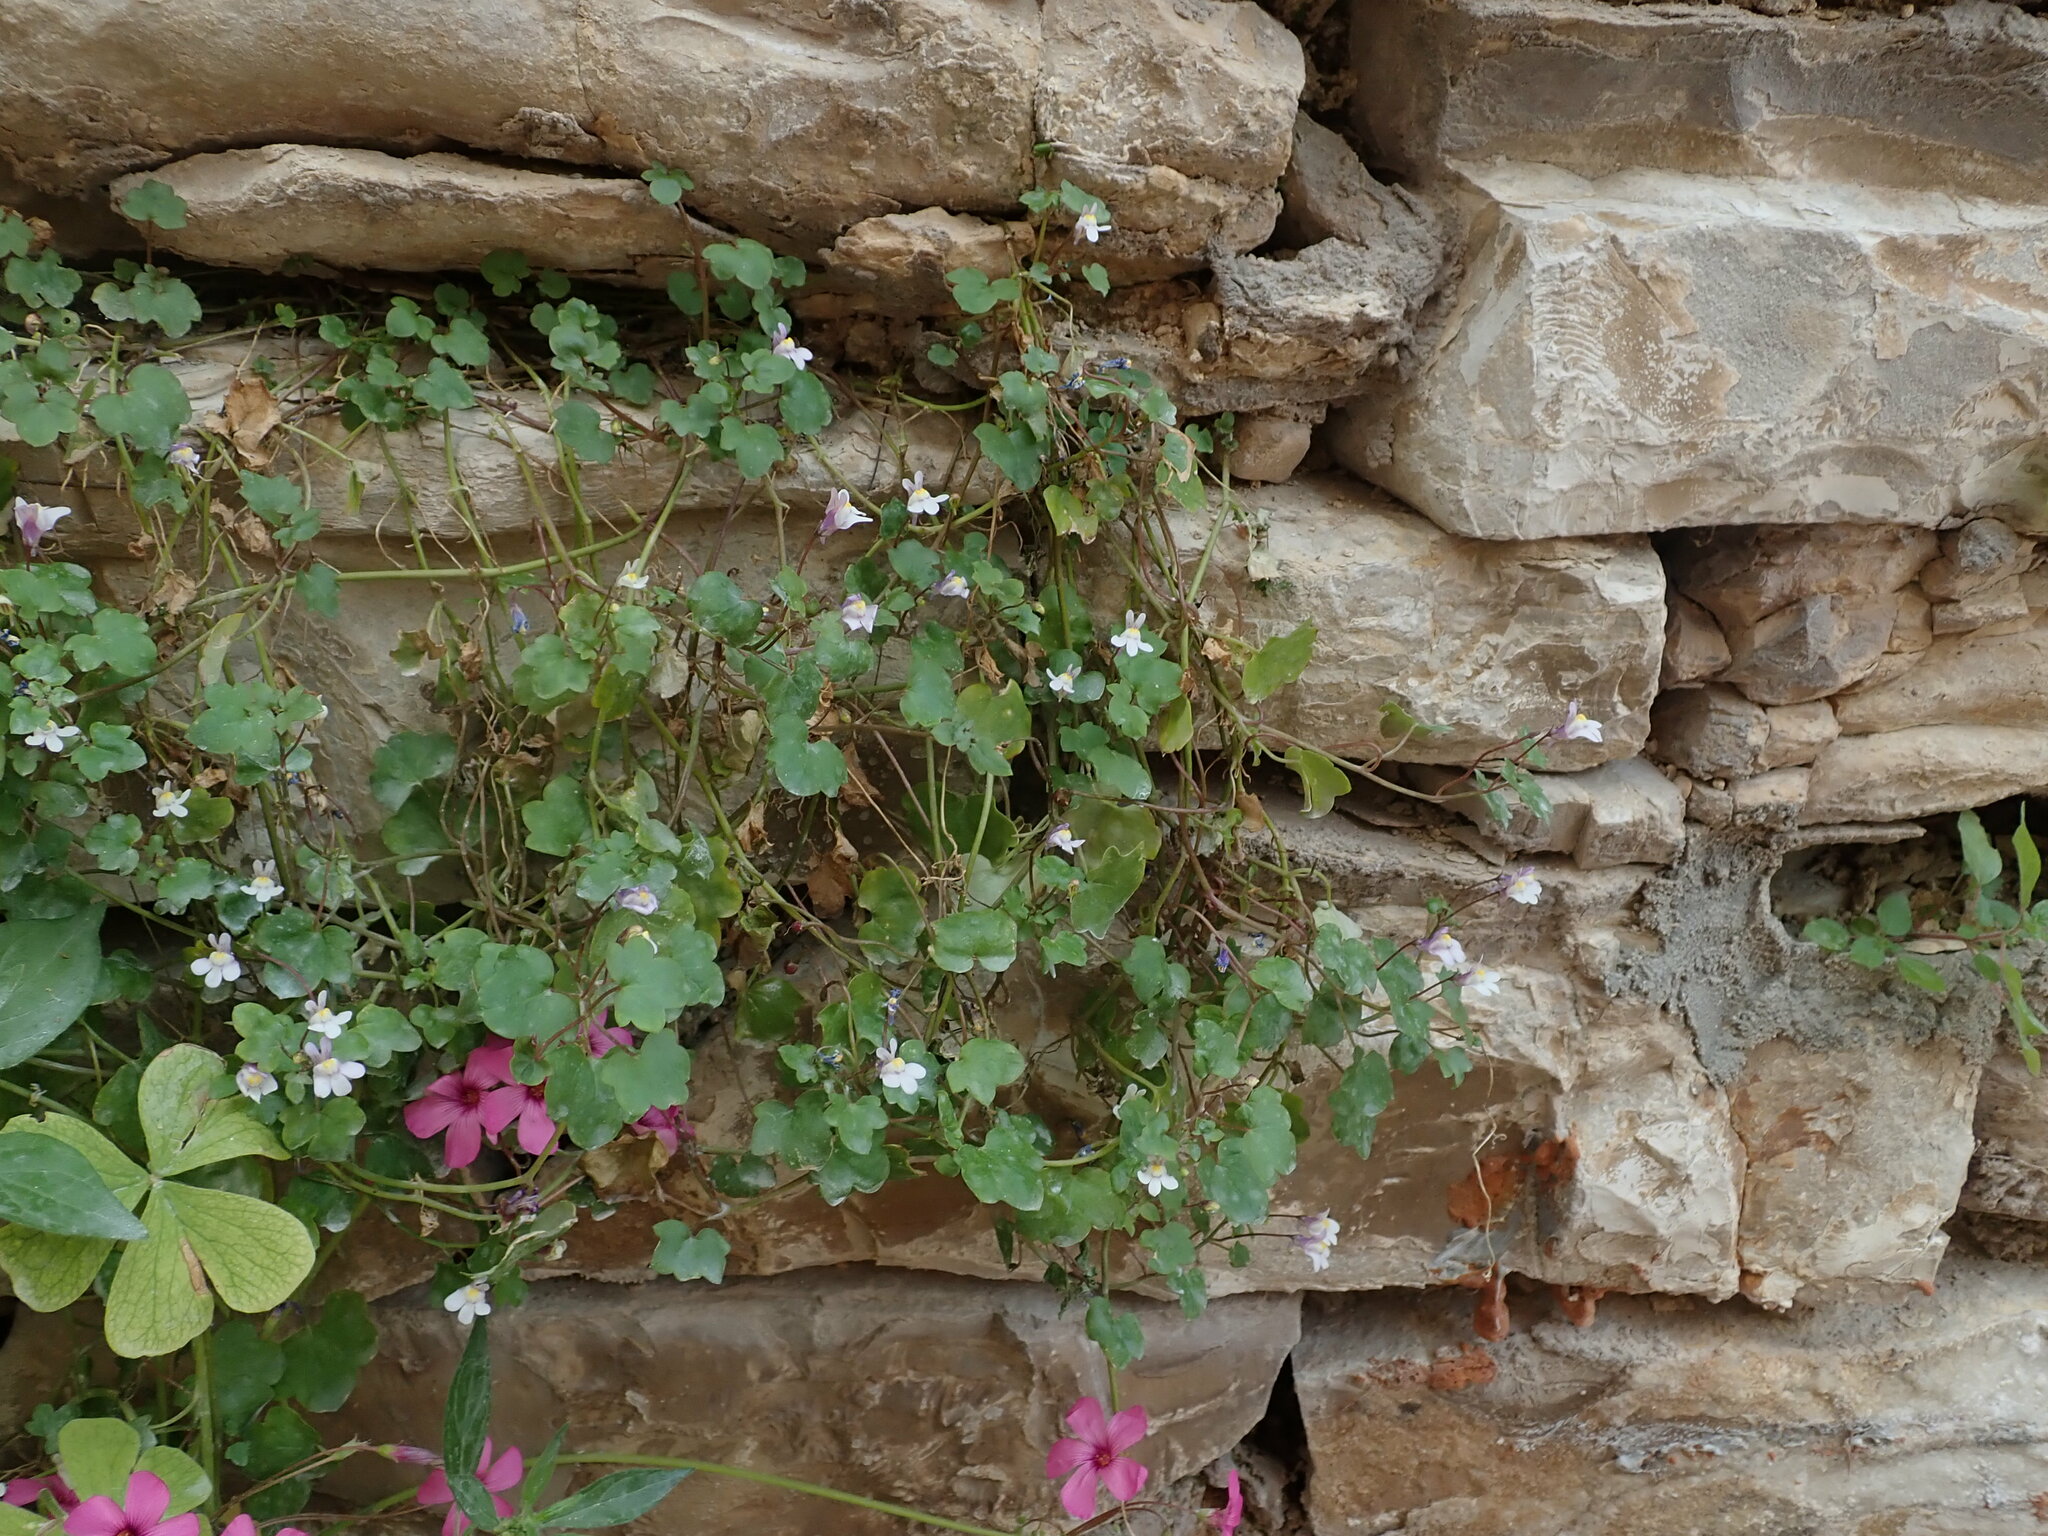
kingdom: Plantae
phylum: Tracheophyta
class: Magnoliopsida
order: Lamiales
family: Plantaginaceae
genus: Cymbalaria
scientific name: Cymbalaria muralis
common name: Ivy-leaved toadflax
